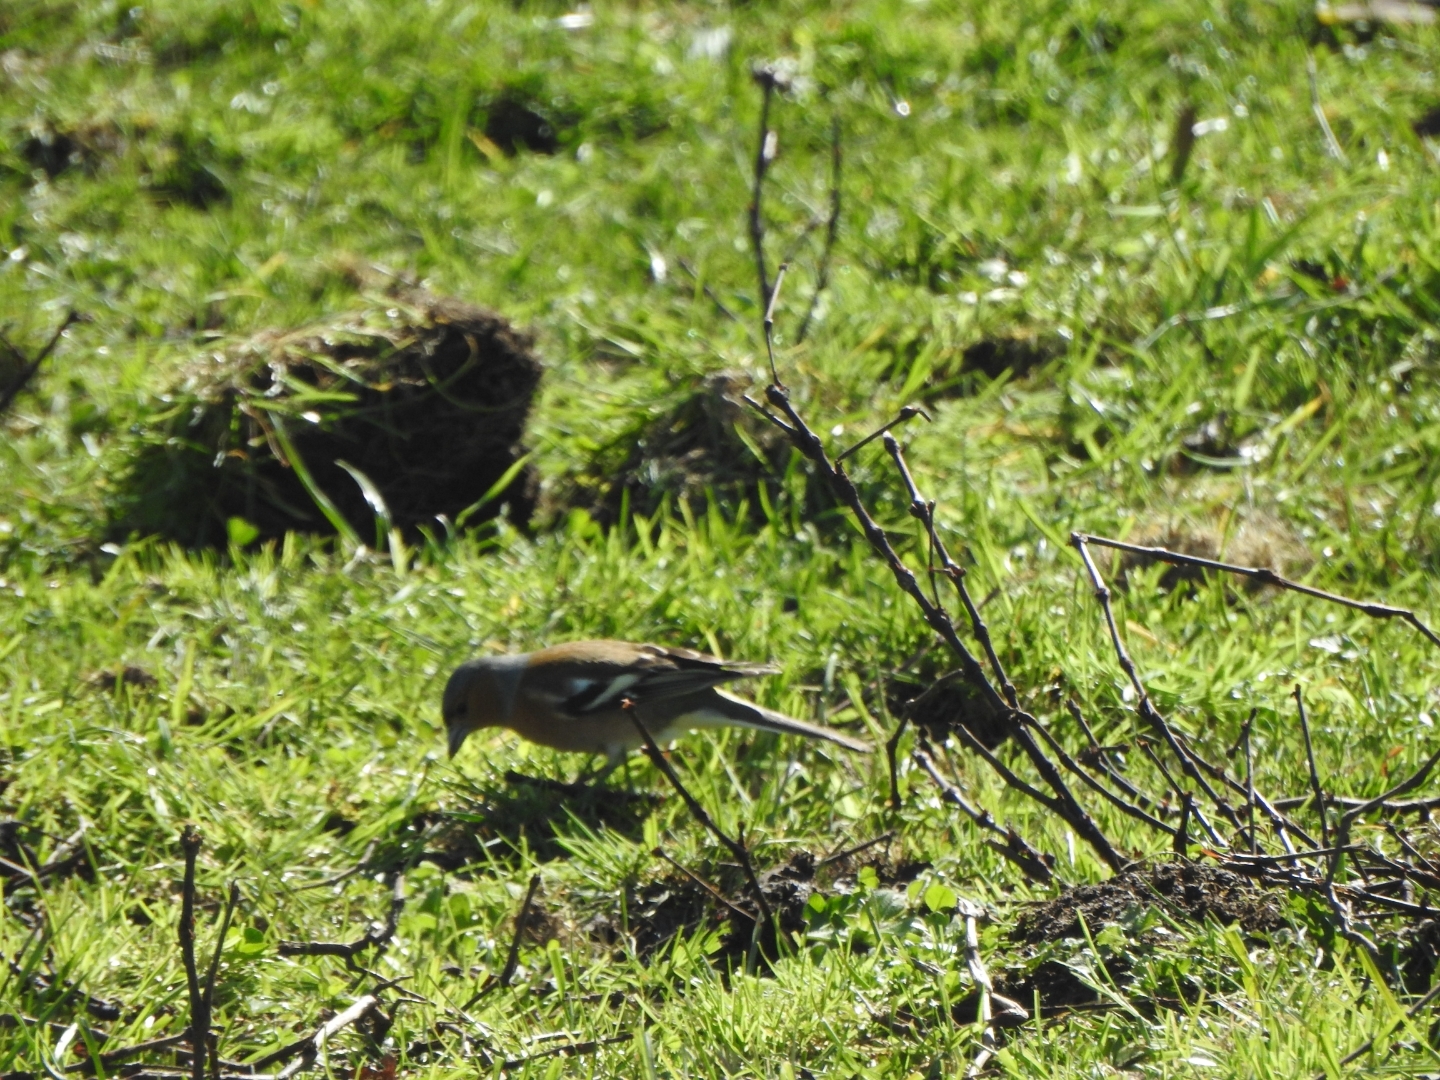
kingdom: Animalia
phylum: Chordata
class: Aves
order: Passeriformes
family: Fringillidae
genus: Fringilla
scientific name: Fringilla coelebs
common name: Common chaffinch
